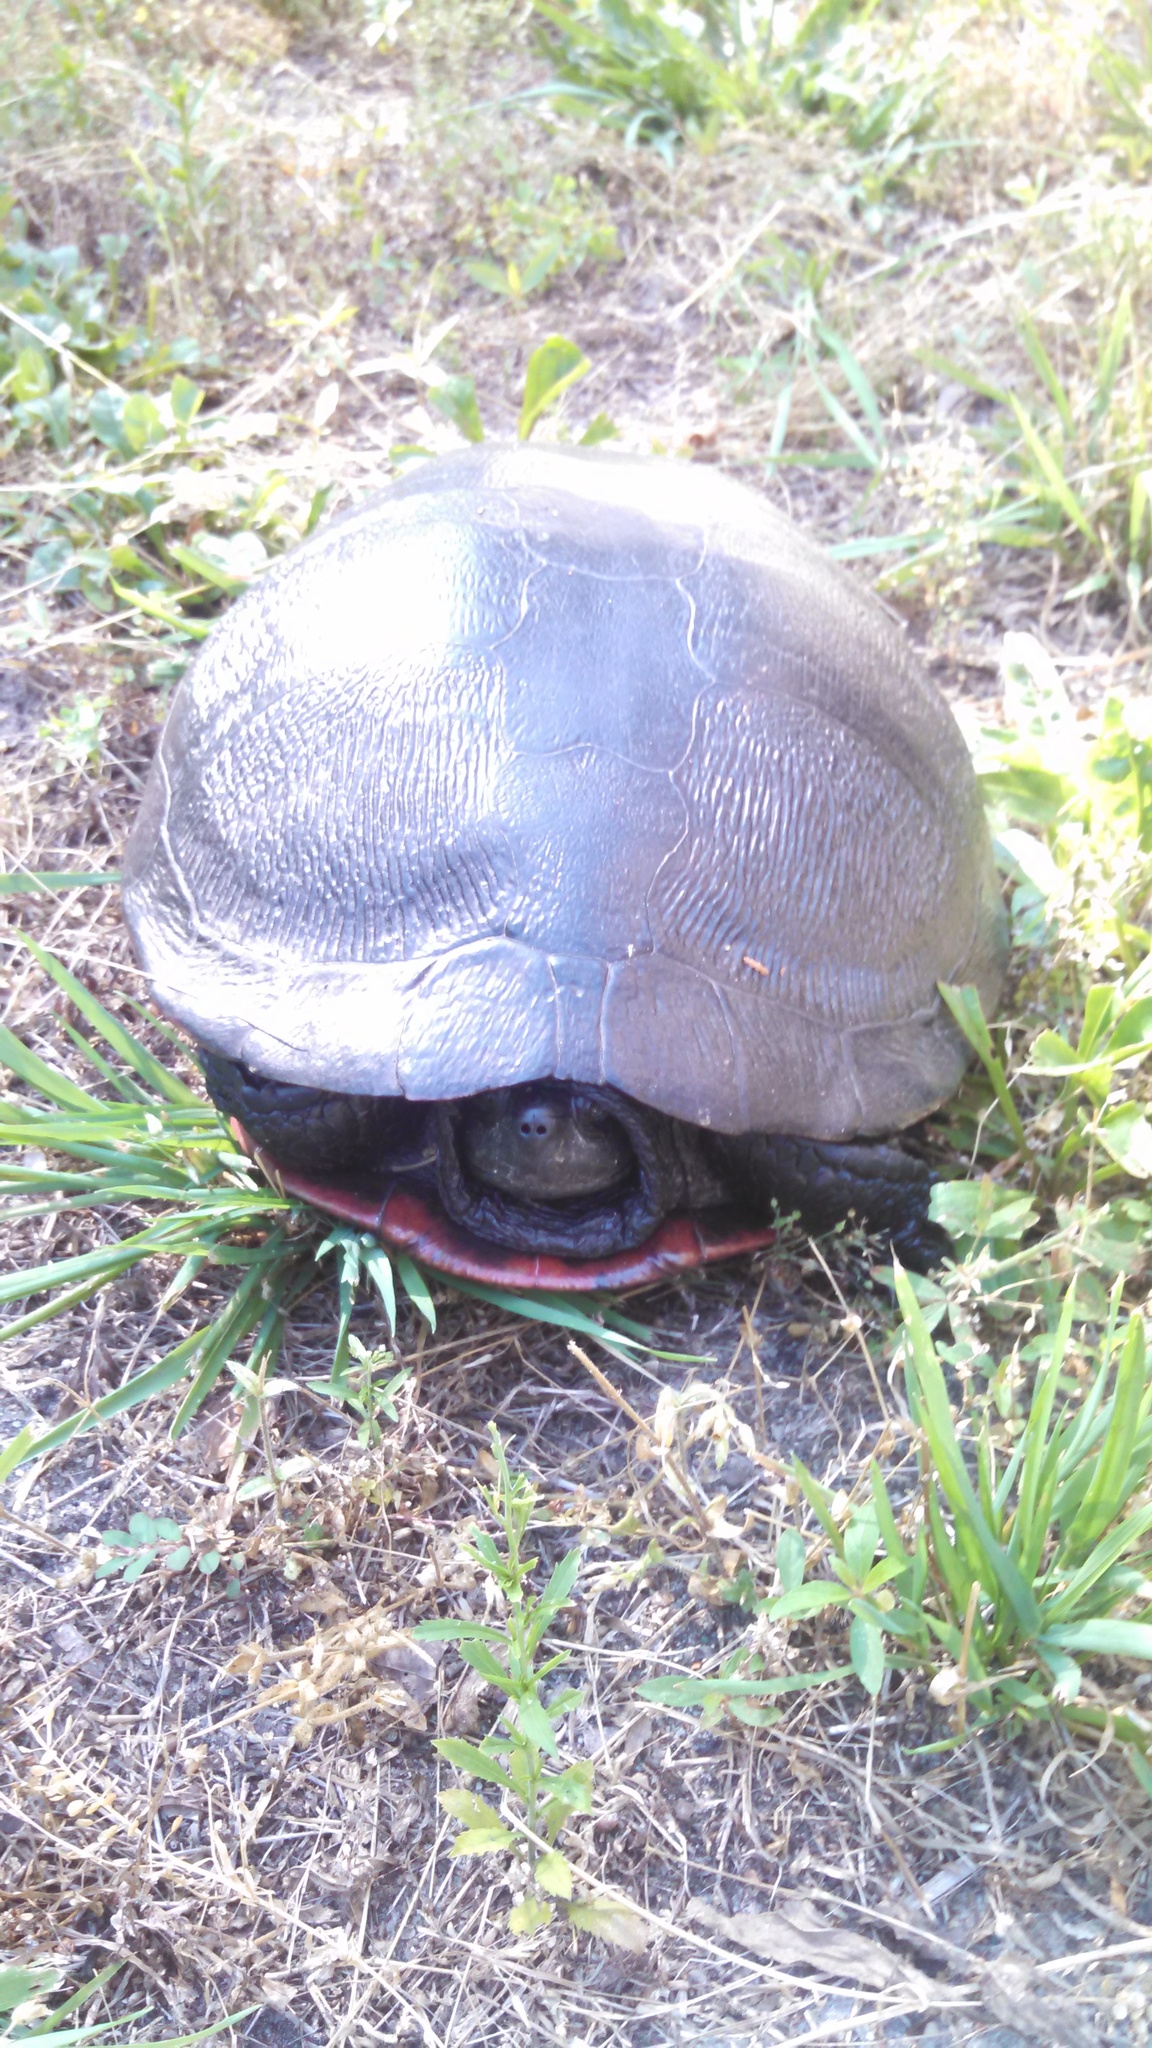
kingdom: Animalia
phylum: Chordata
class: Testudines
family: Emydidae
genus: Pseudemys
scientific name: Pseudemys rubriventris
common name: American red-bellied turtle
